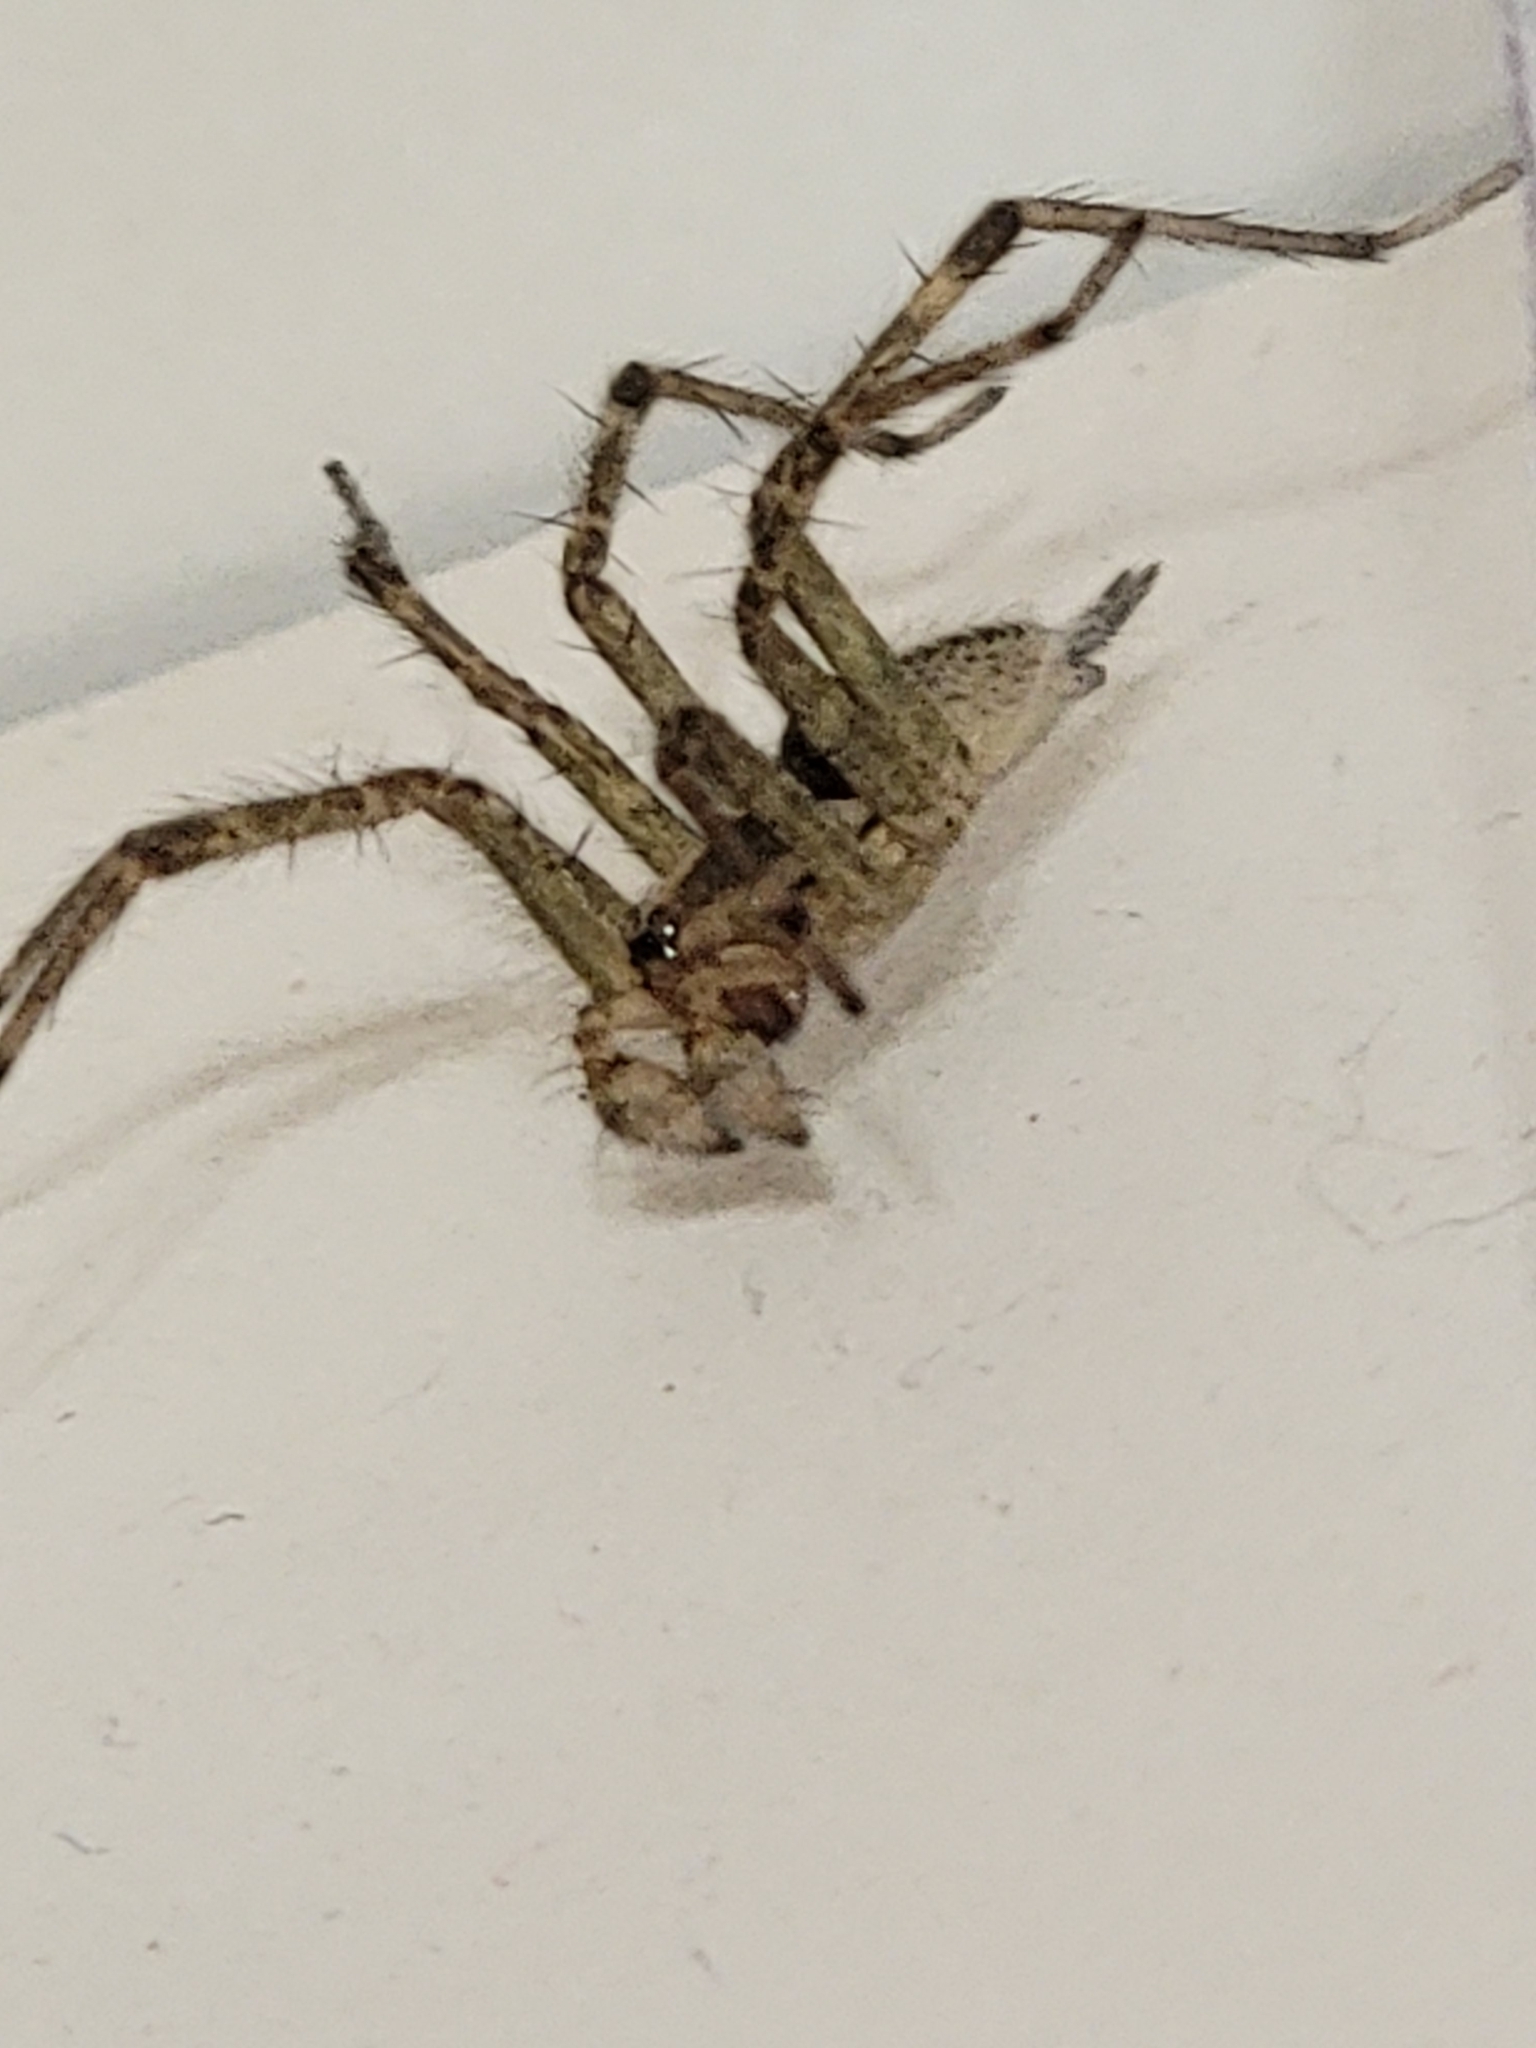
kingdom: Animalia
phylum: Arthropoda
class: Arachnida
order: Araneae
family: Agelenidae
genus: Agelenopsis
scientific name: Agelenopsis
